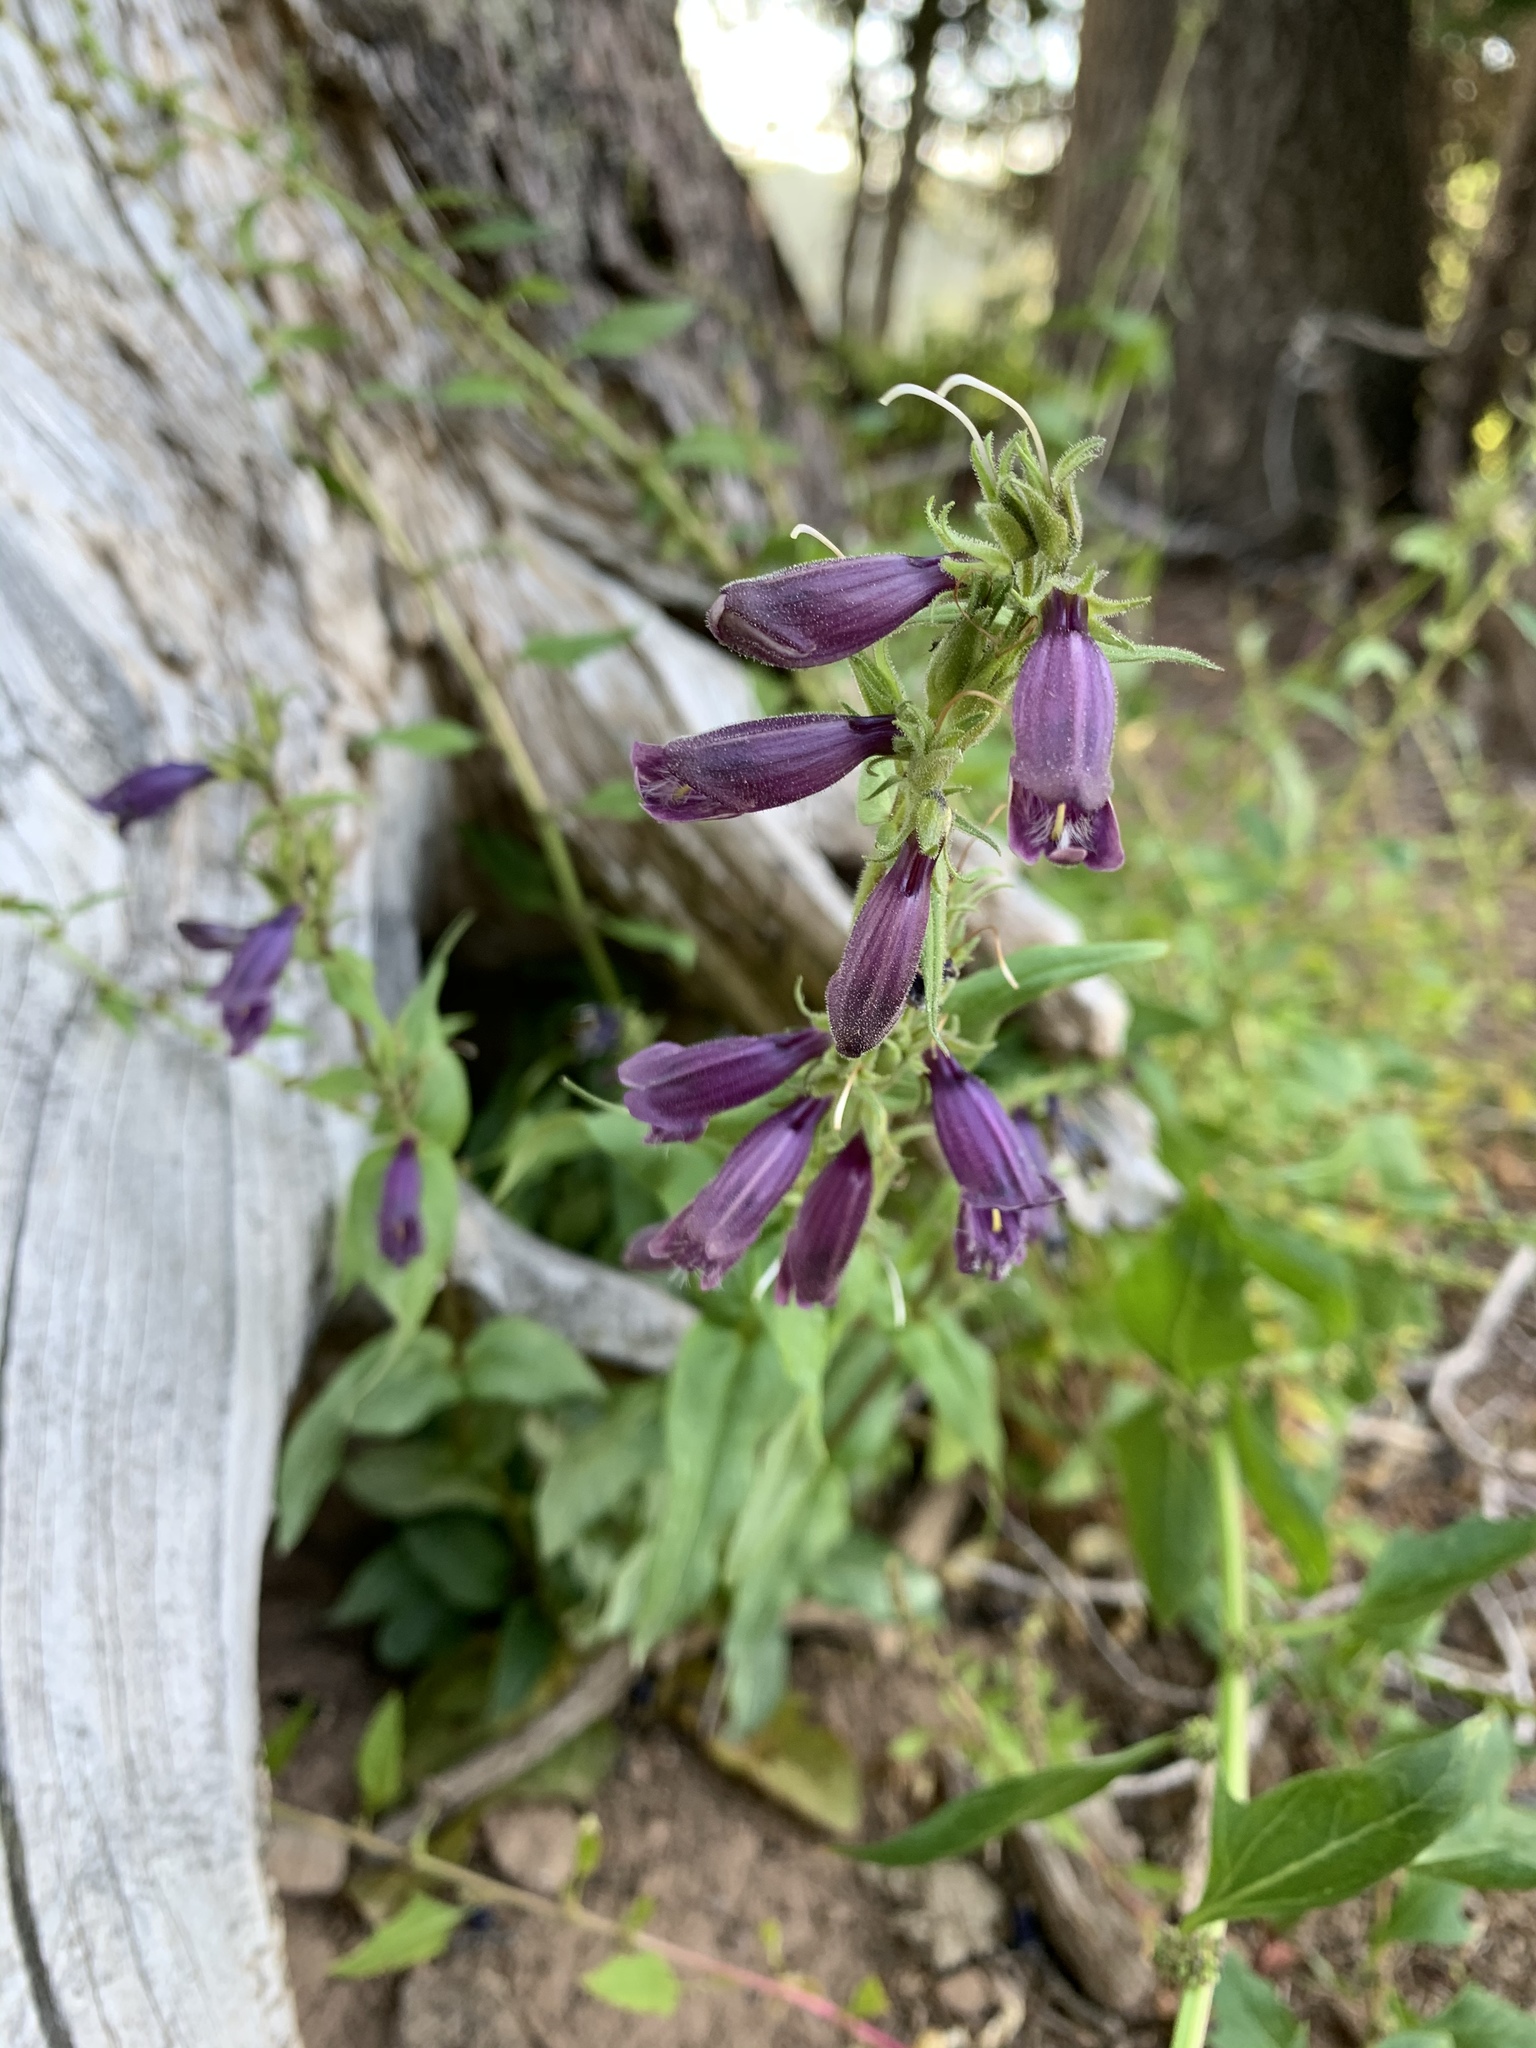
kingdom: Plantae
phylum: Tracheophyta
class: Magnoliopsida
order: Lamiales
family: Plantaginaceae
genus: Penstemon
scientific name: Penstemon whippleanus
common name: Whipple's penstemon
